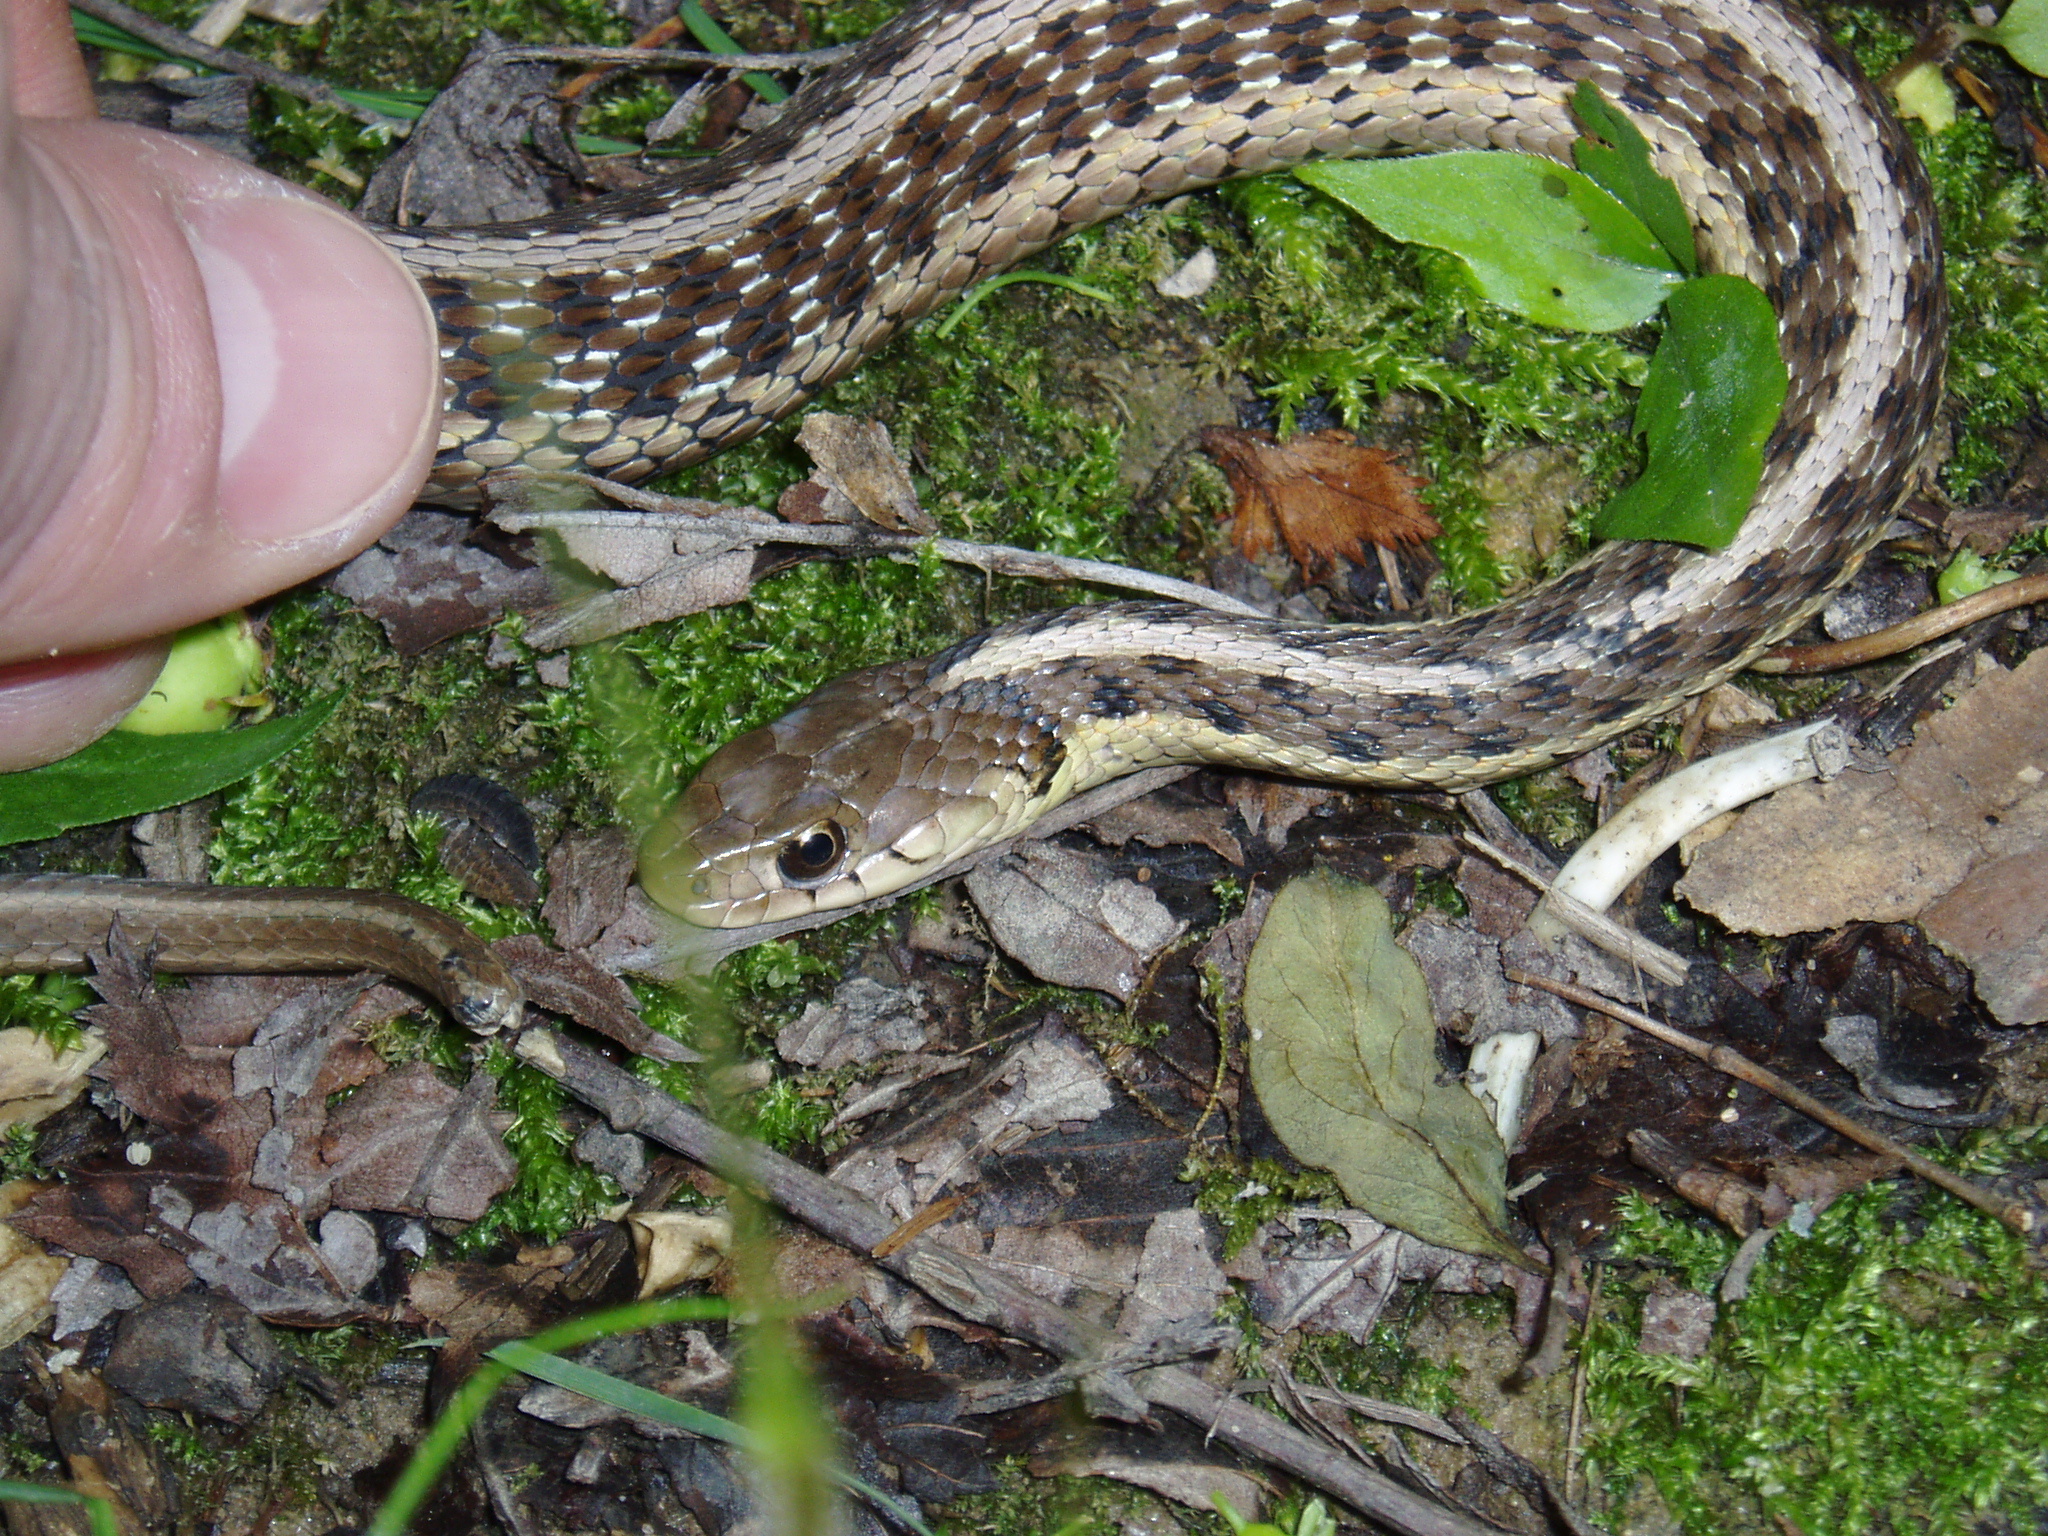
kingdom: Animalia
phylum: Chordata
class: Squamata
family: Colubridae
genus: Thamnophis
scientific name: Thamnophis sirtalis
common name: Common garter snake
